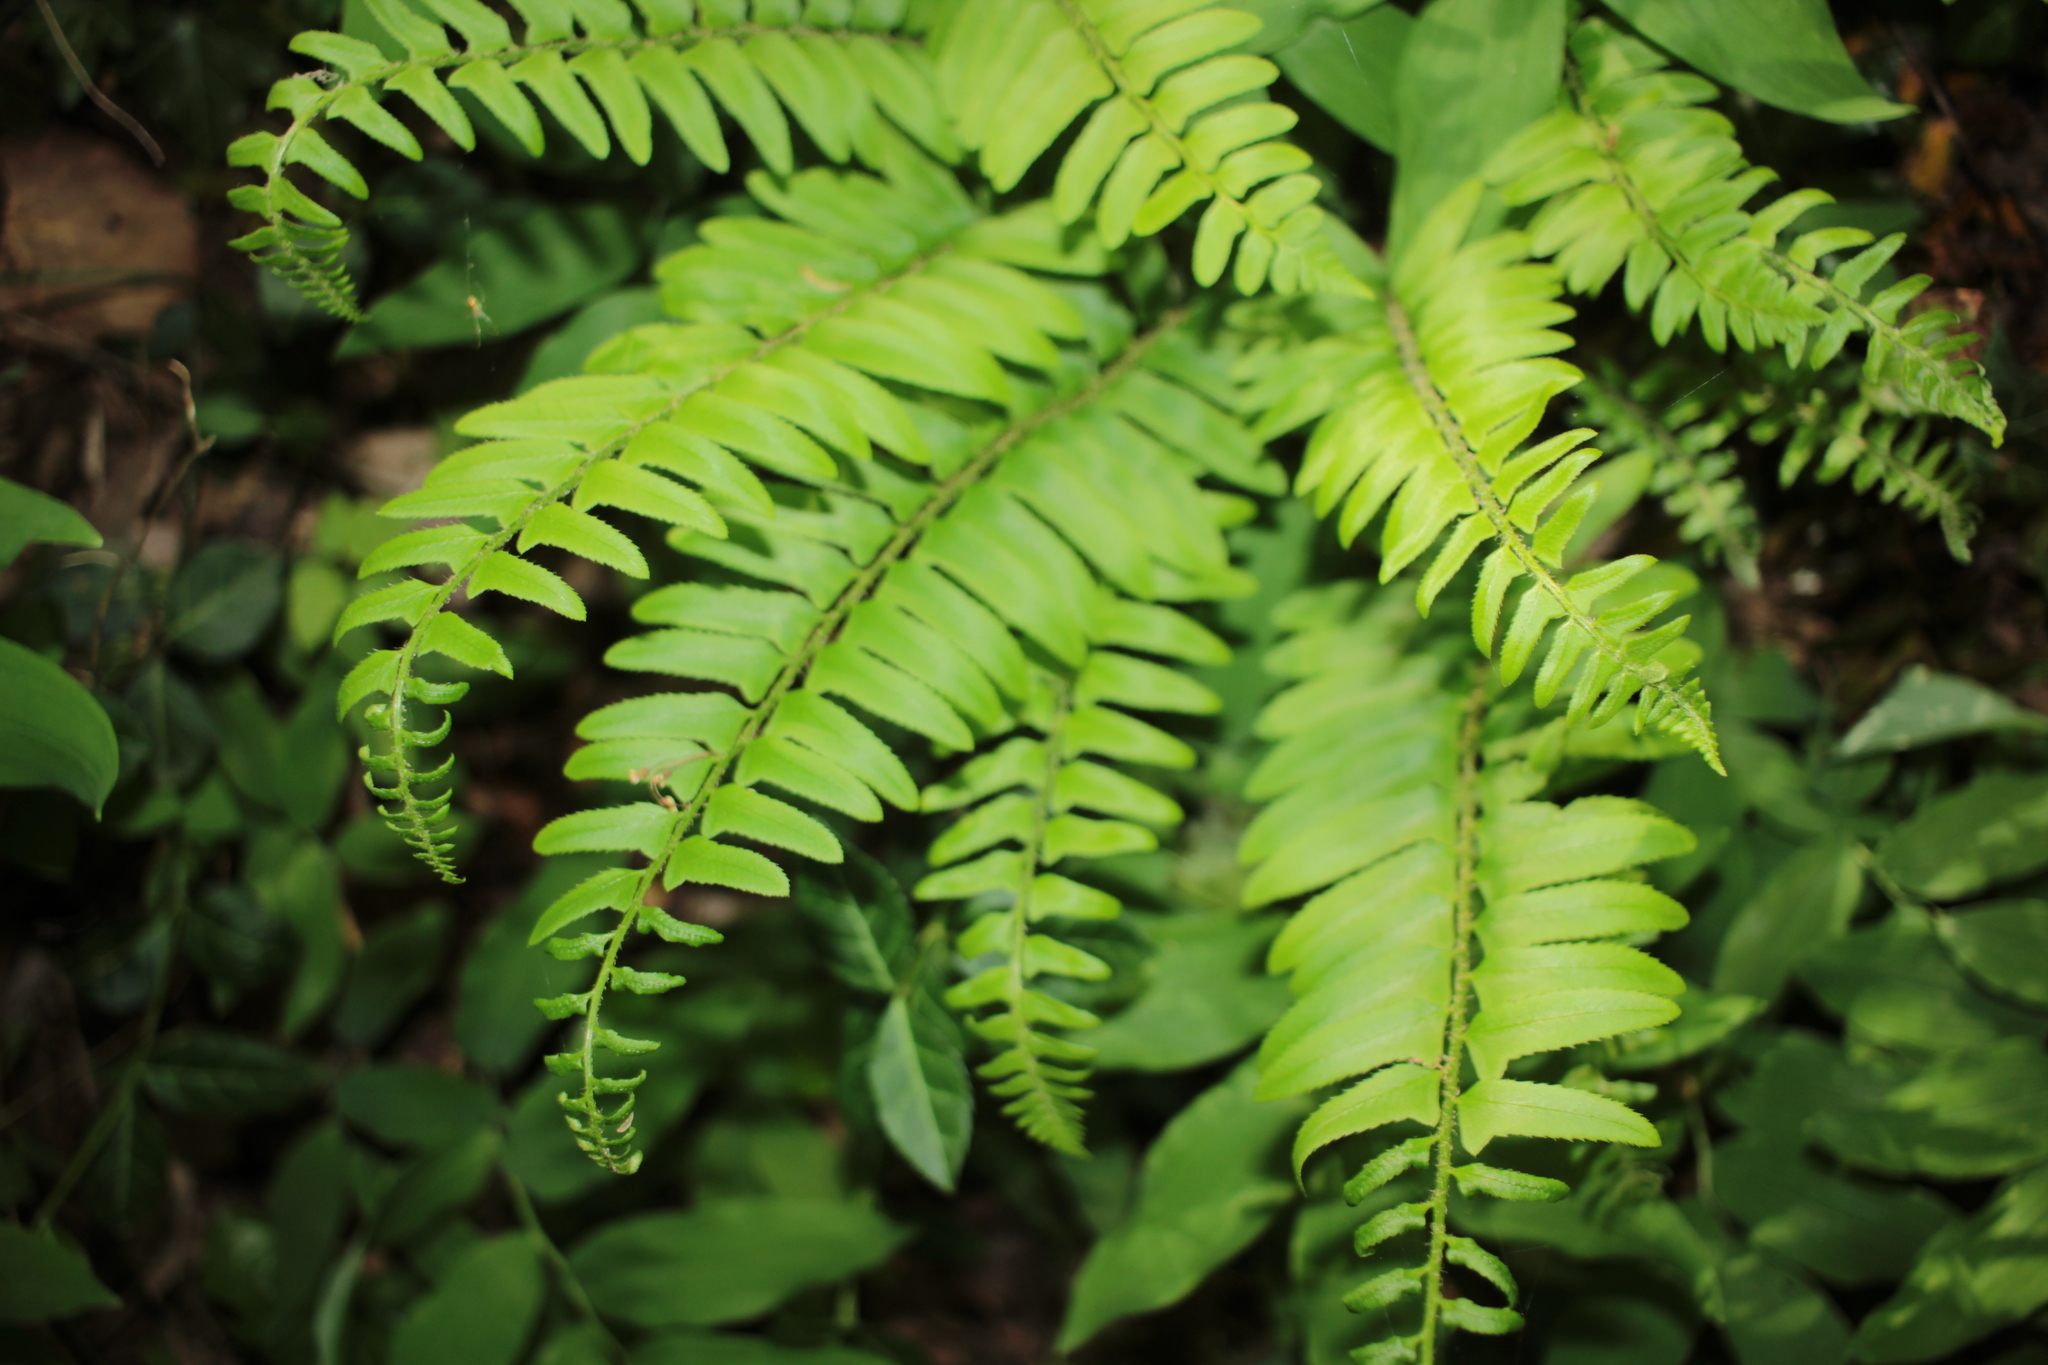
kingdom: Plantae
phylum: Tracheophyta
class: Polypodiopsida
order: Polypodiales
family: Dryopteridaceae
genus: Polystichum
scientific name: Polystichum acrostichoides
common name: Christmas fern
